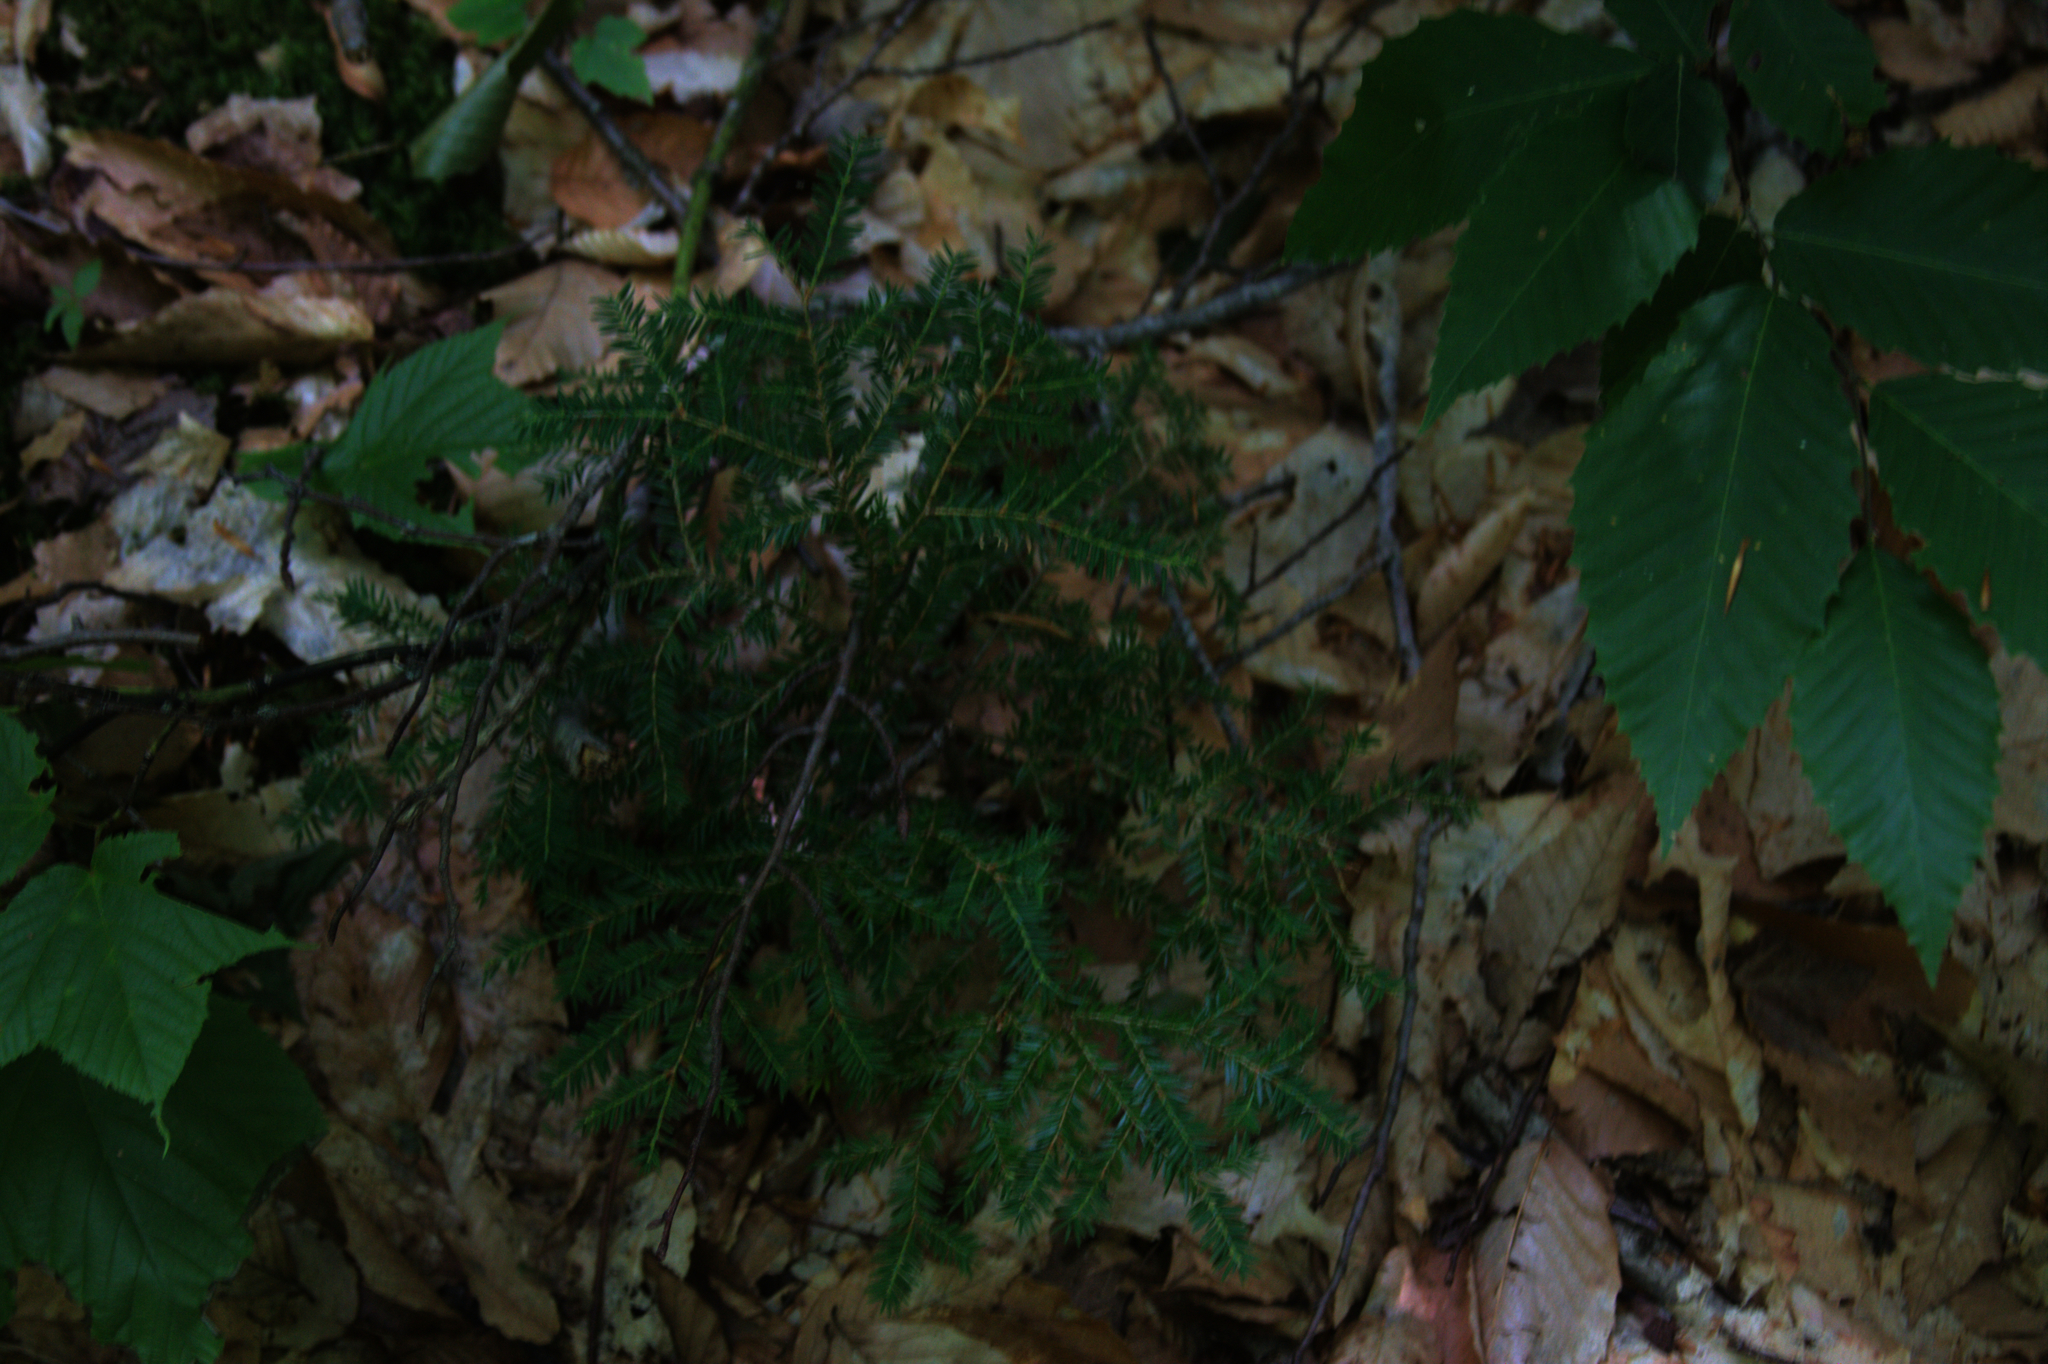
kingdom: Plantae
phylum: Tracheophyta
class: Magnoliopsida
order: Fagales
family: Fagaceae
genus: Fagus
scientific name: Fagus grandifolia
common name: American beech
